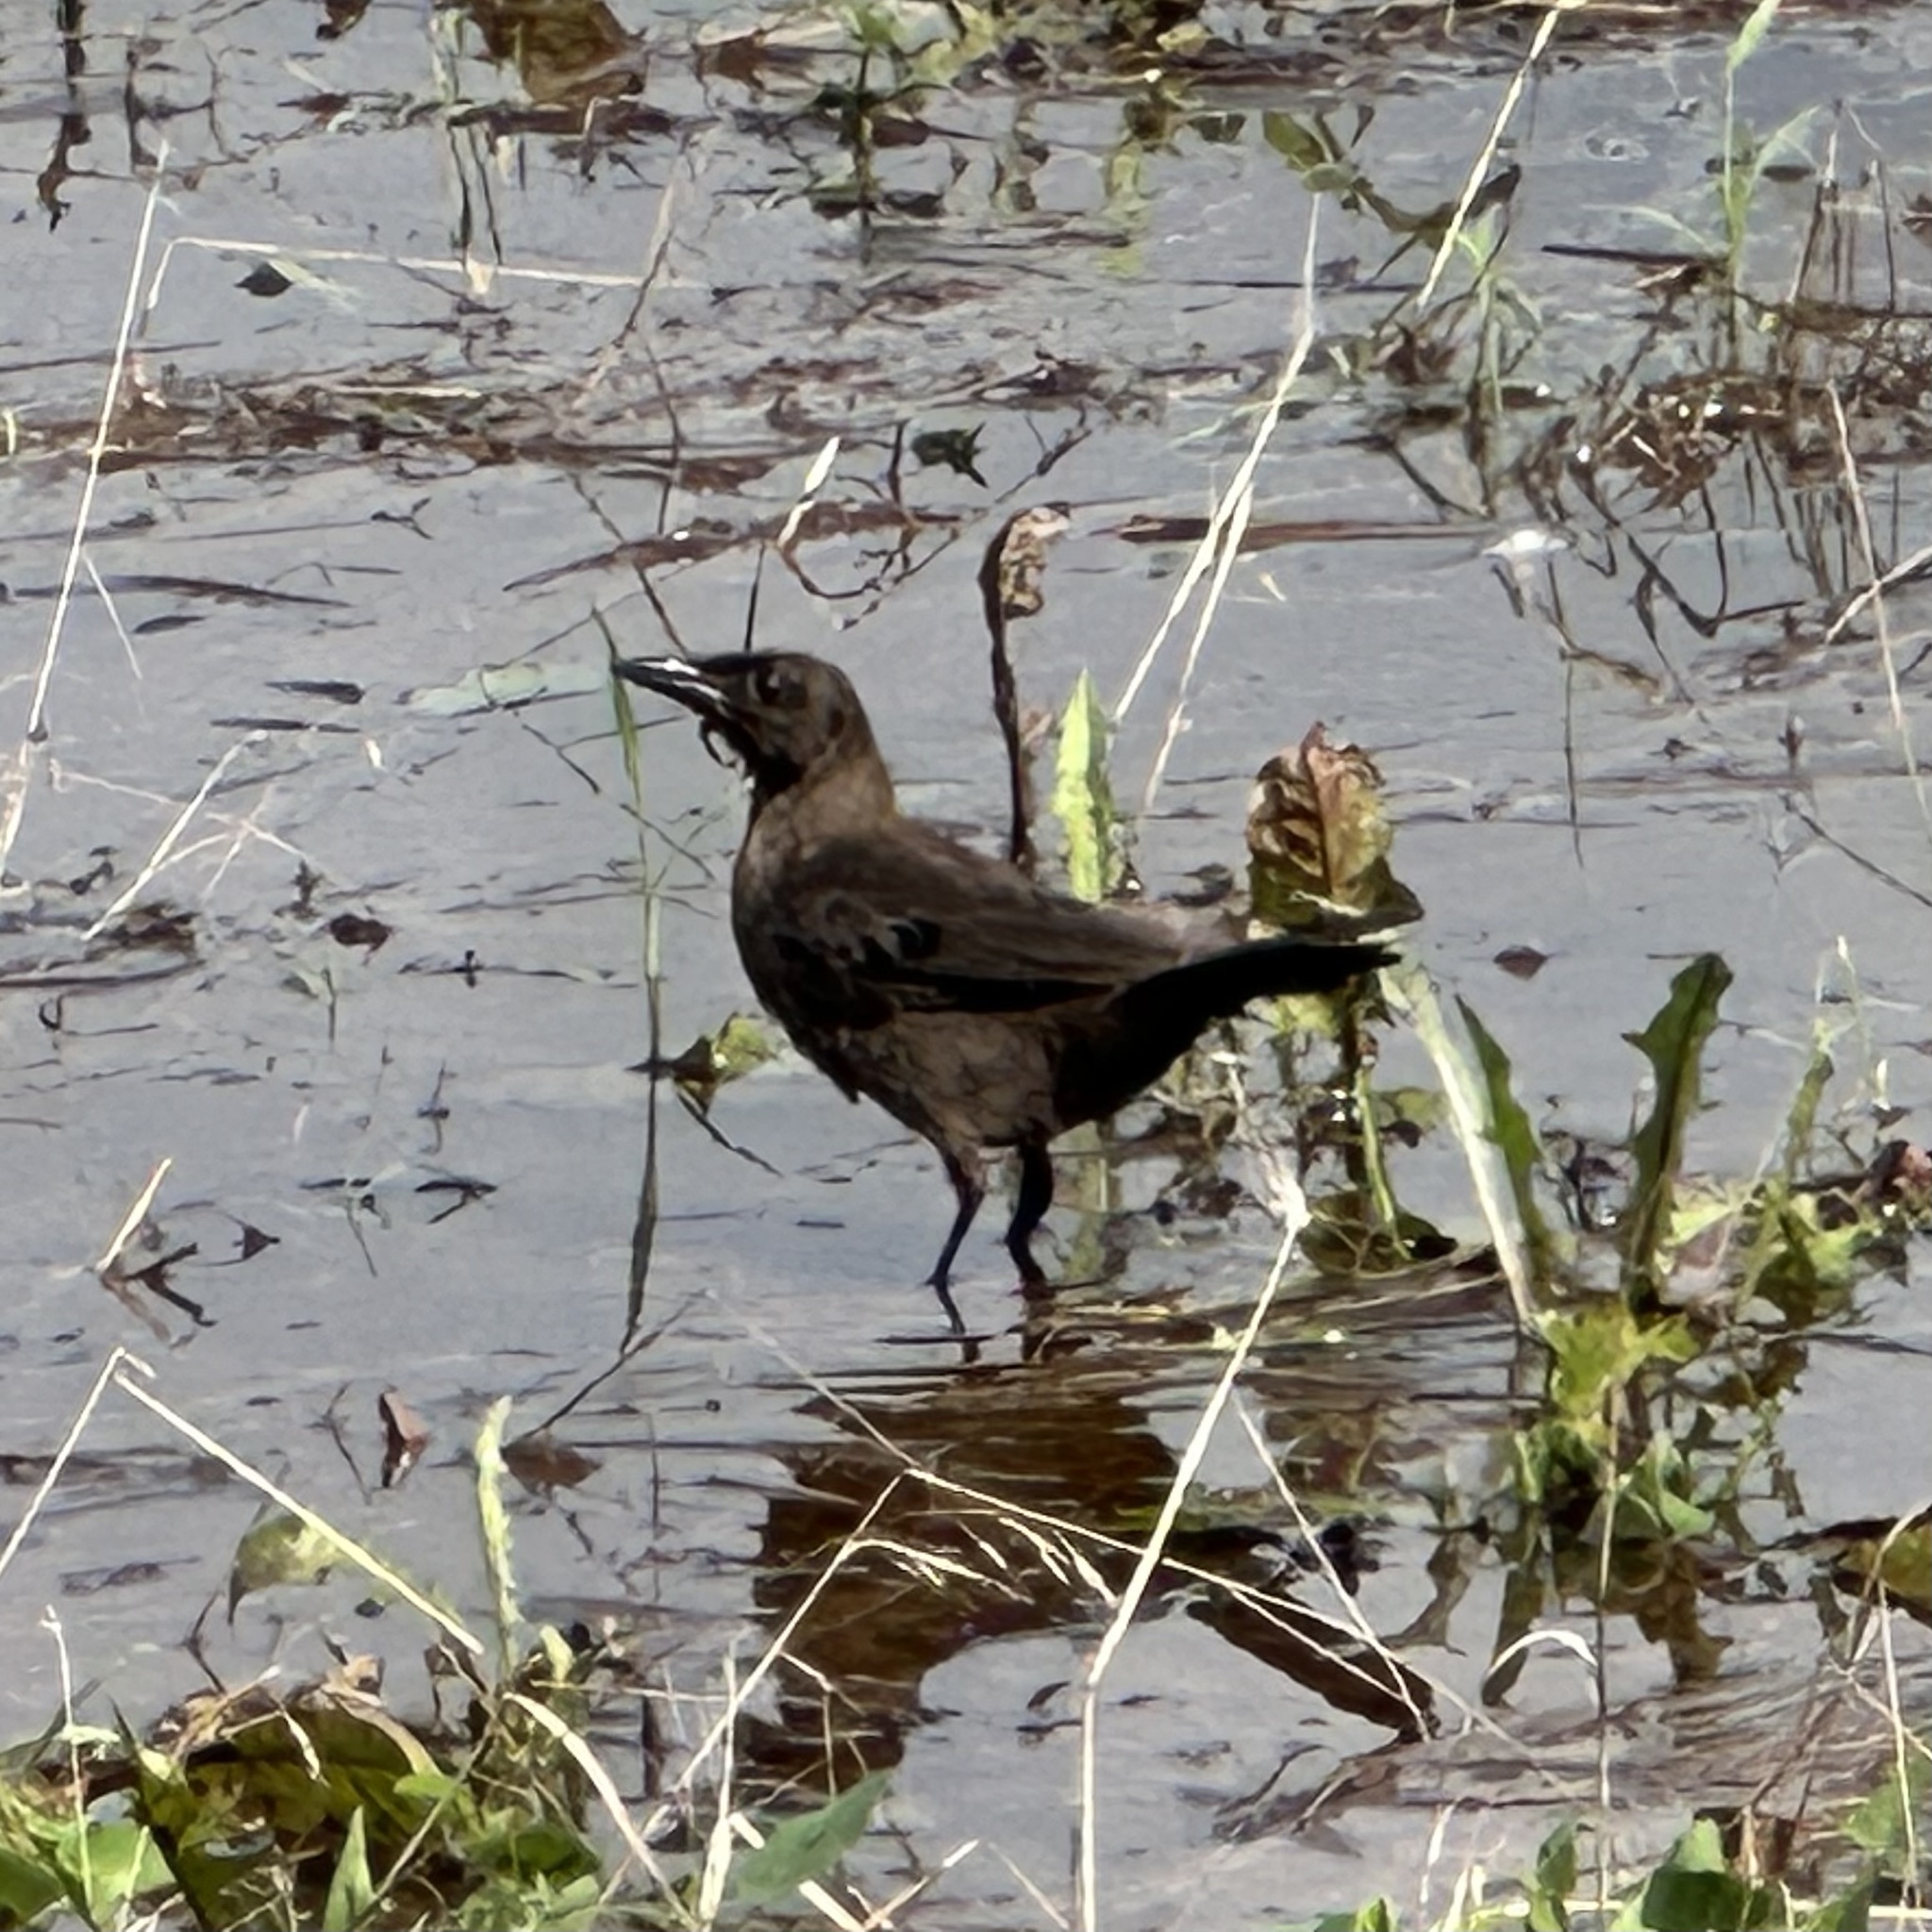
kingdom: Animalia
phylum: Chordata
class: Aves
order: Passeriformes
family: Icteridae
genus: Quiscalus
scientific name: Quiscalus quiscula
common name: Common grackle
